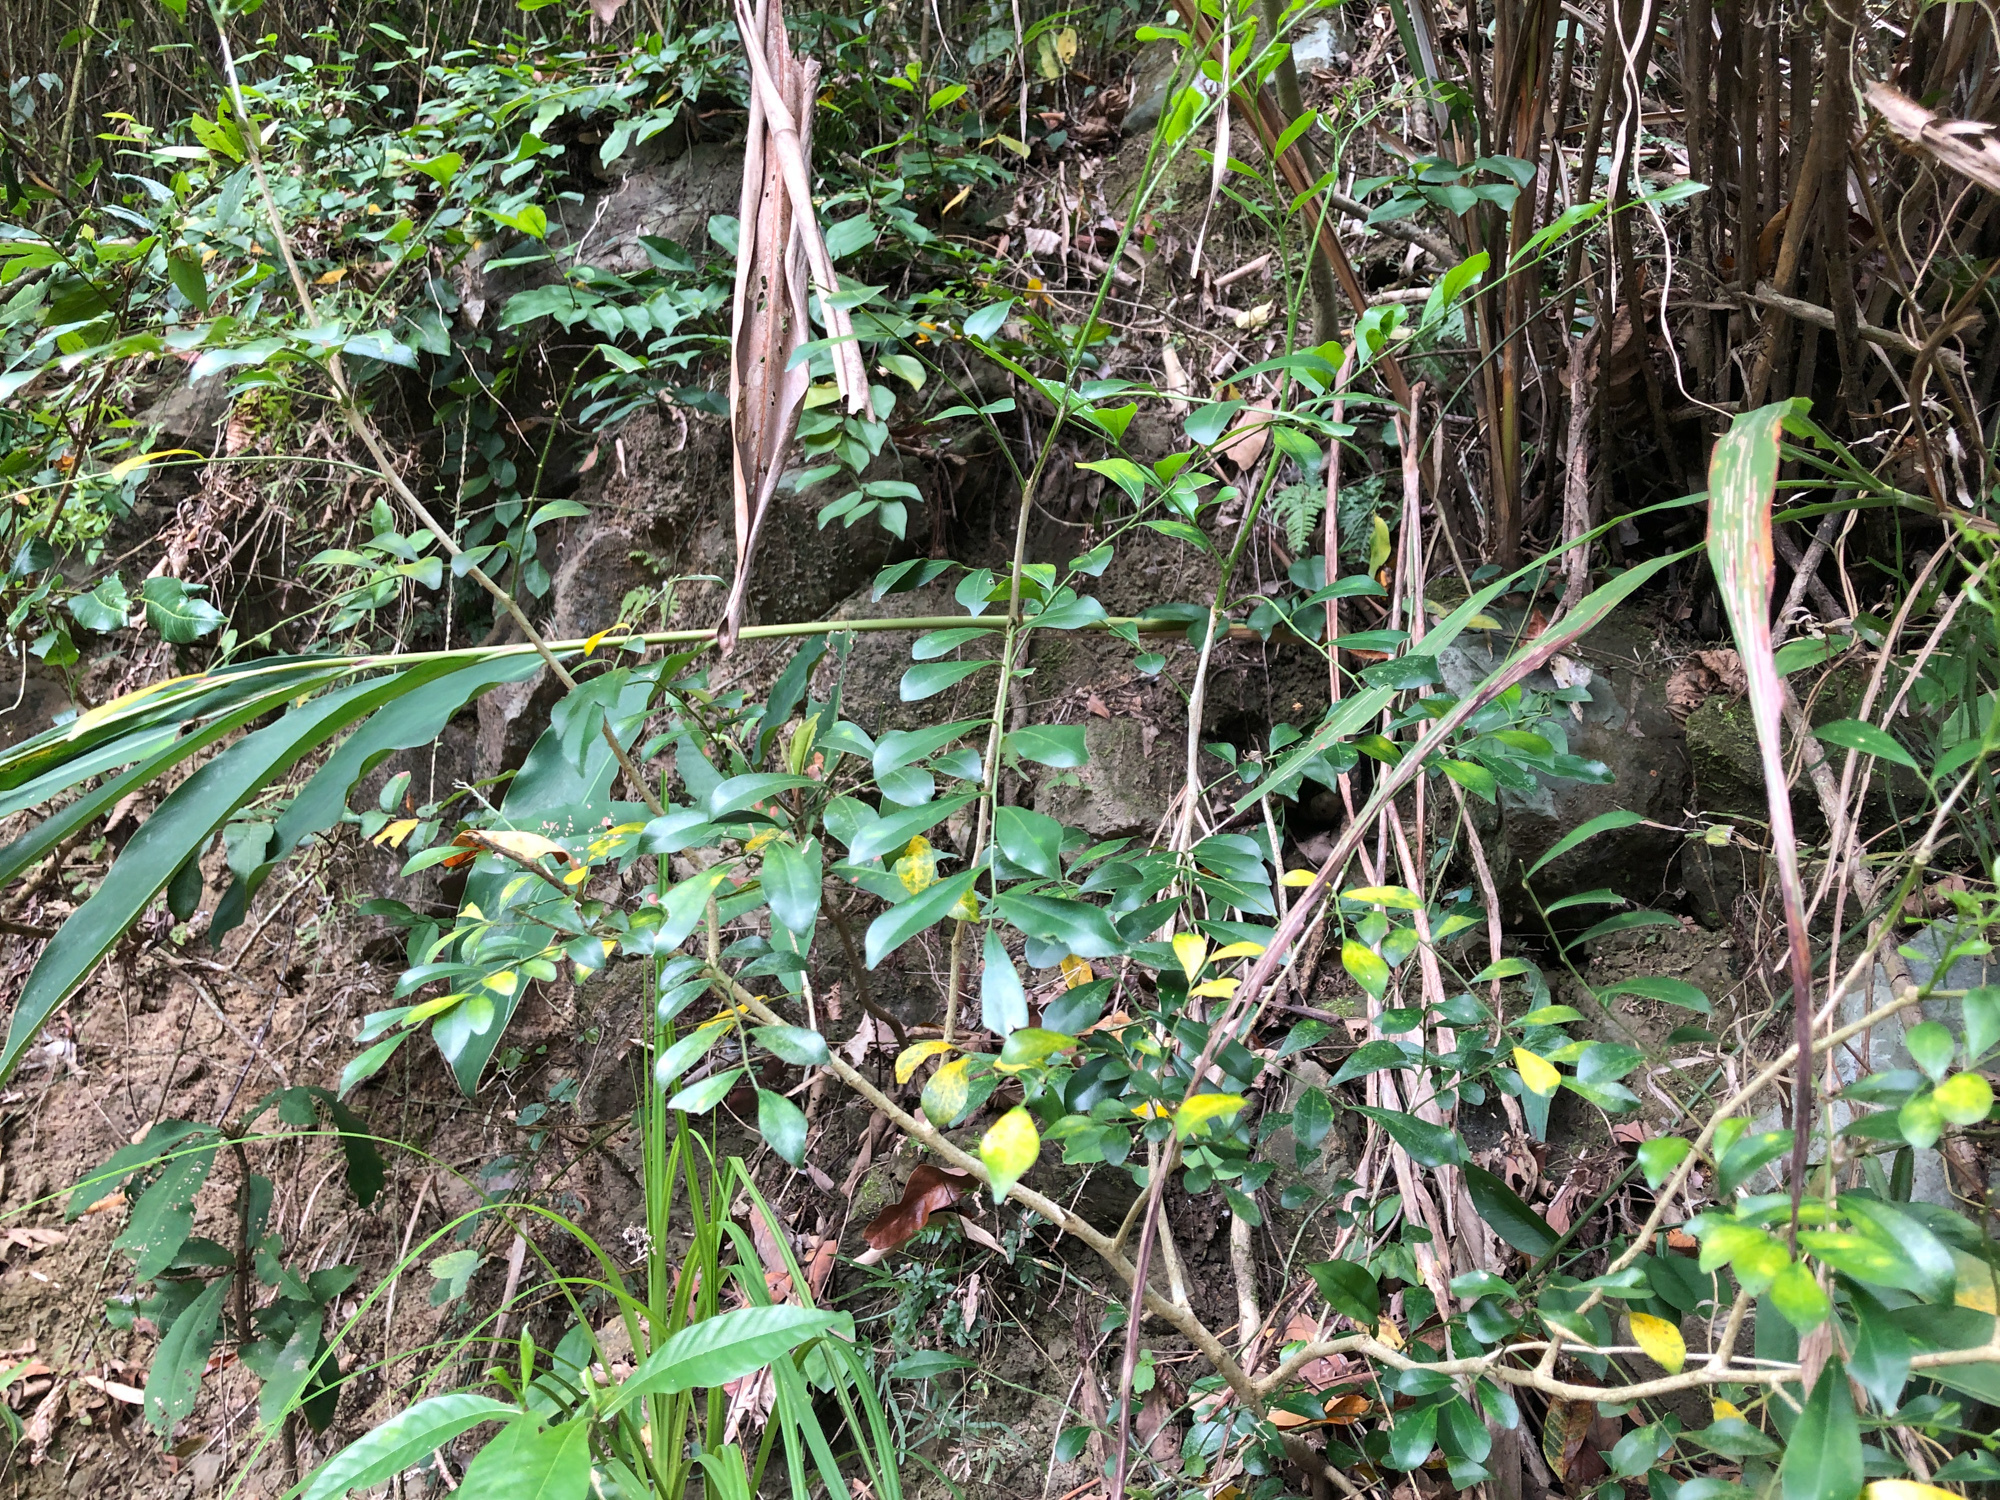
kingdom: Plantae
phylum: Tracheophyta
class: Magnoliopsida
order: Sapindales
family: Rutaceae
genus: Murraya
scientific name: Murraya paniculata
